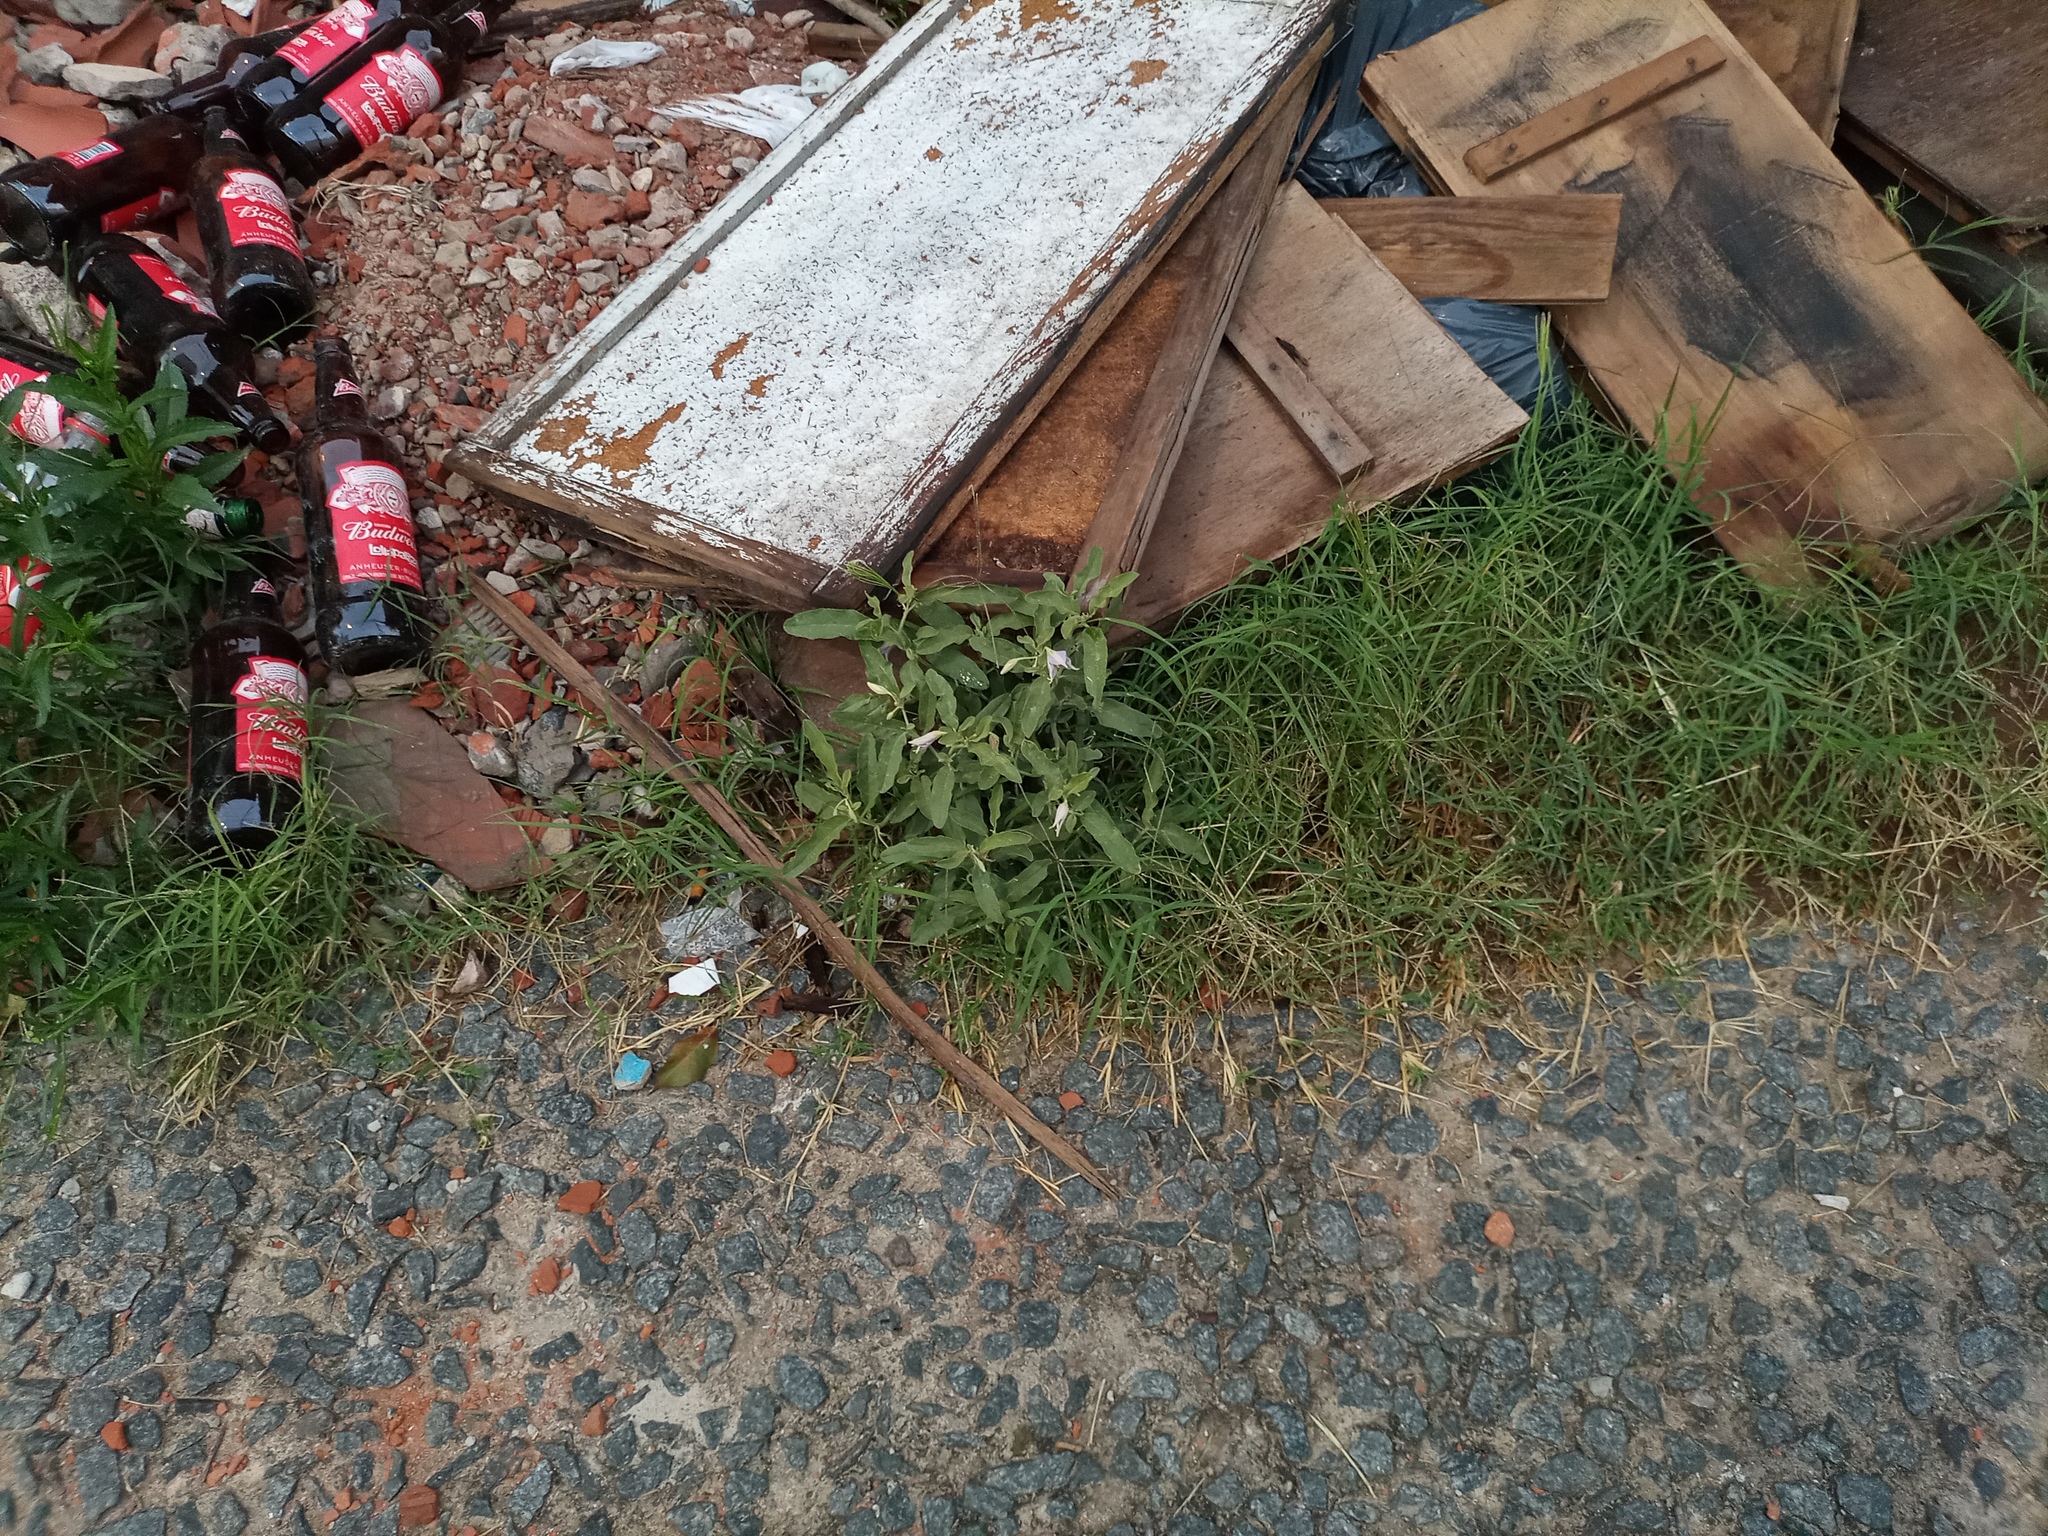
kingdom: Plantae
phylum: Tracheophyta
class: Magnoliopsida
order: Solanales
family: Solanaceae
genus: Solanum
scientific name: Solanum elaeagnifolium
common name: Silverleaf nightshade
